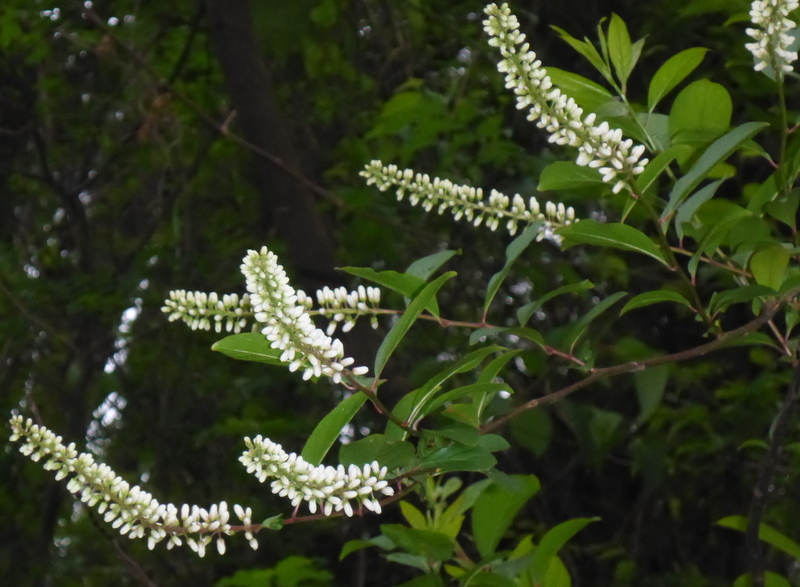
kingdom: Plantae
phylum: Tracheophyta
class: Magnoliopsida
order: Saxifragales
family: Iteaceae
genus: Itea
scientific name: Itea virginica
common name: Sweetspire
